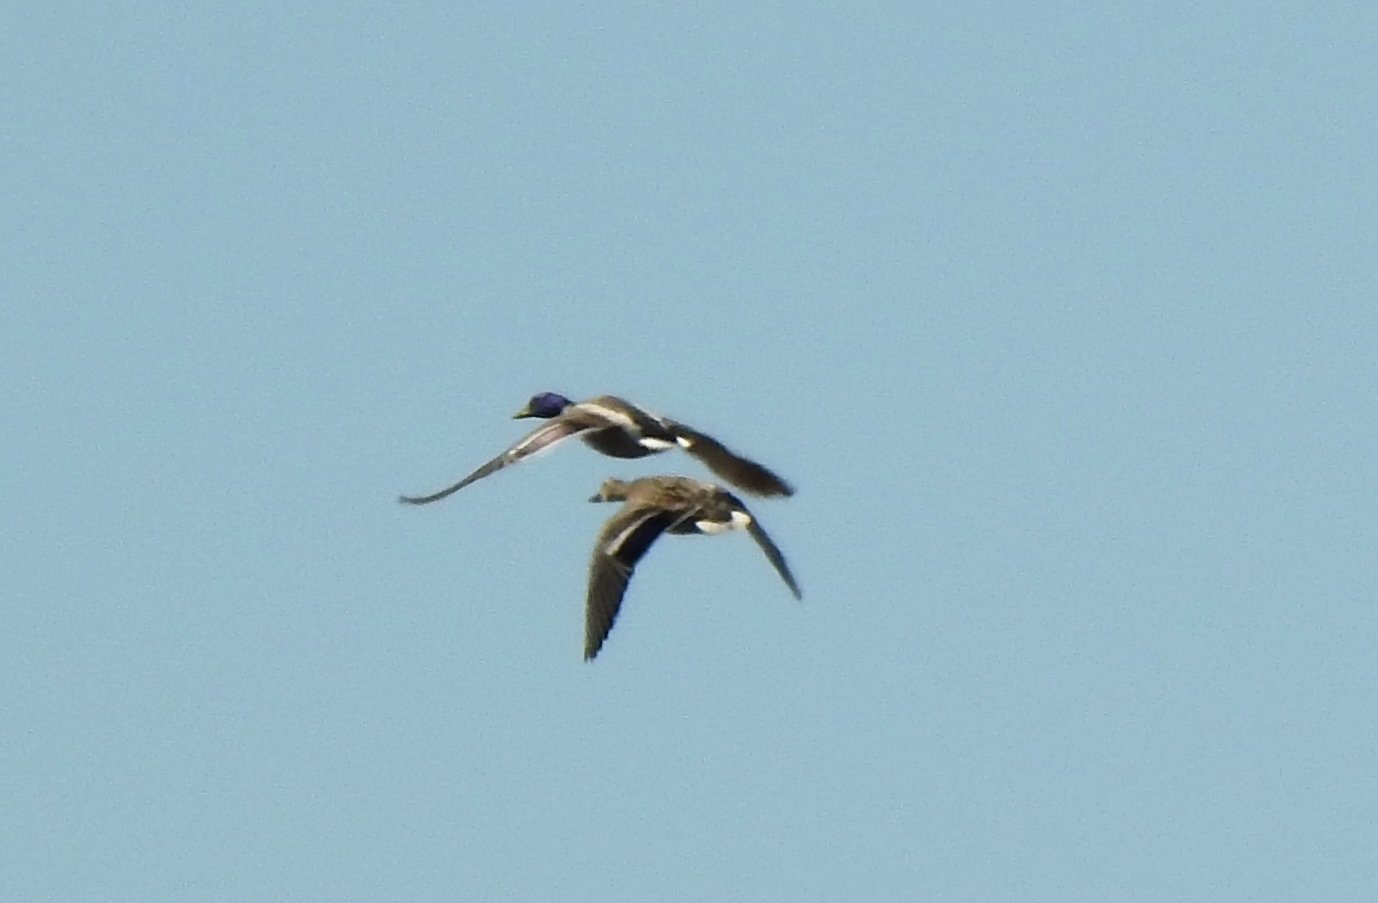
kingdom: Animalia
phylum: Chordata
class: Aves
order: Anseriformes
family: Anatidae
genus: Anas
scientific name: Anas platyrhynchos
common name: Mallard
